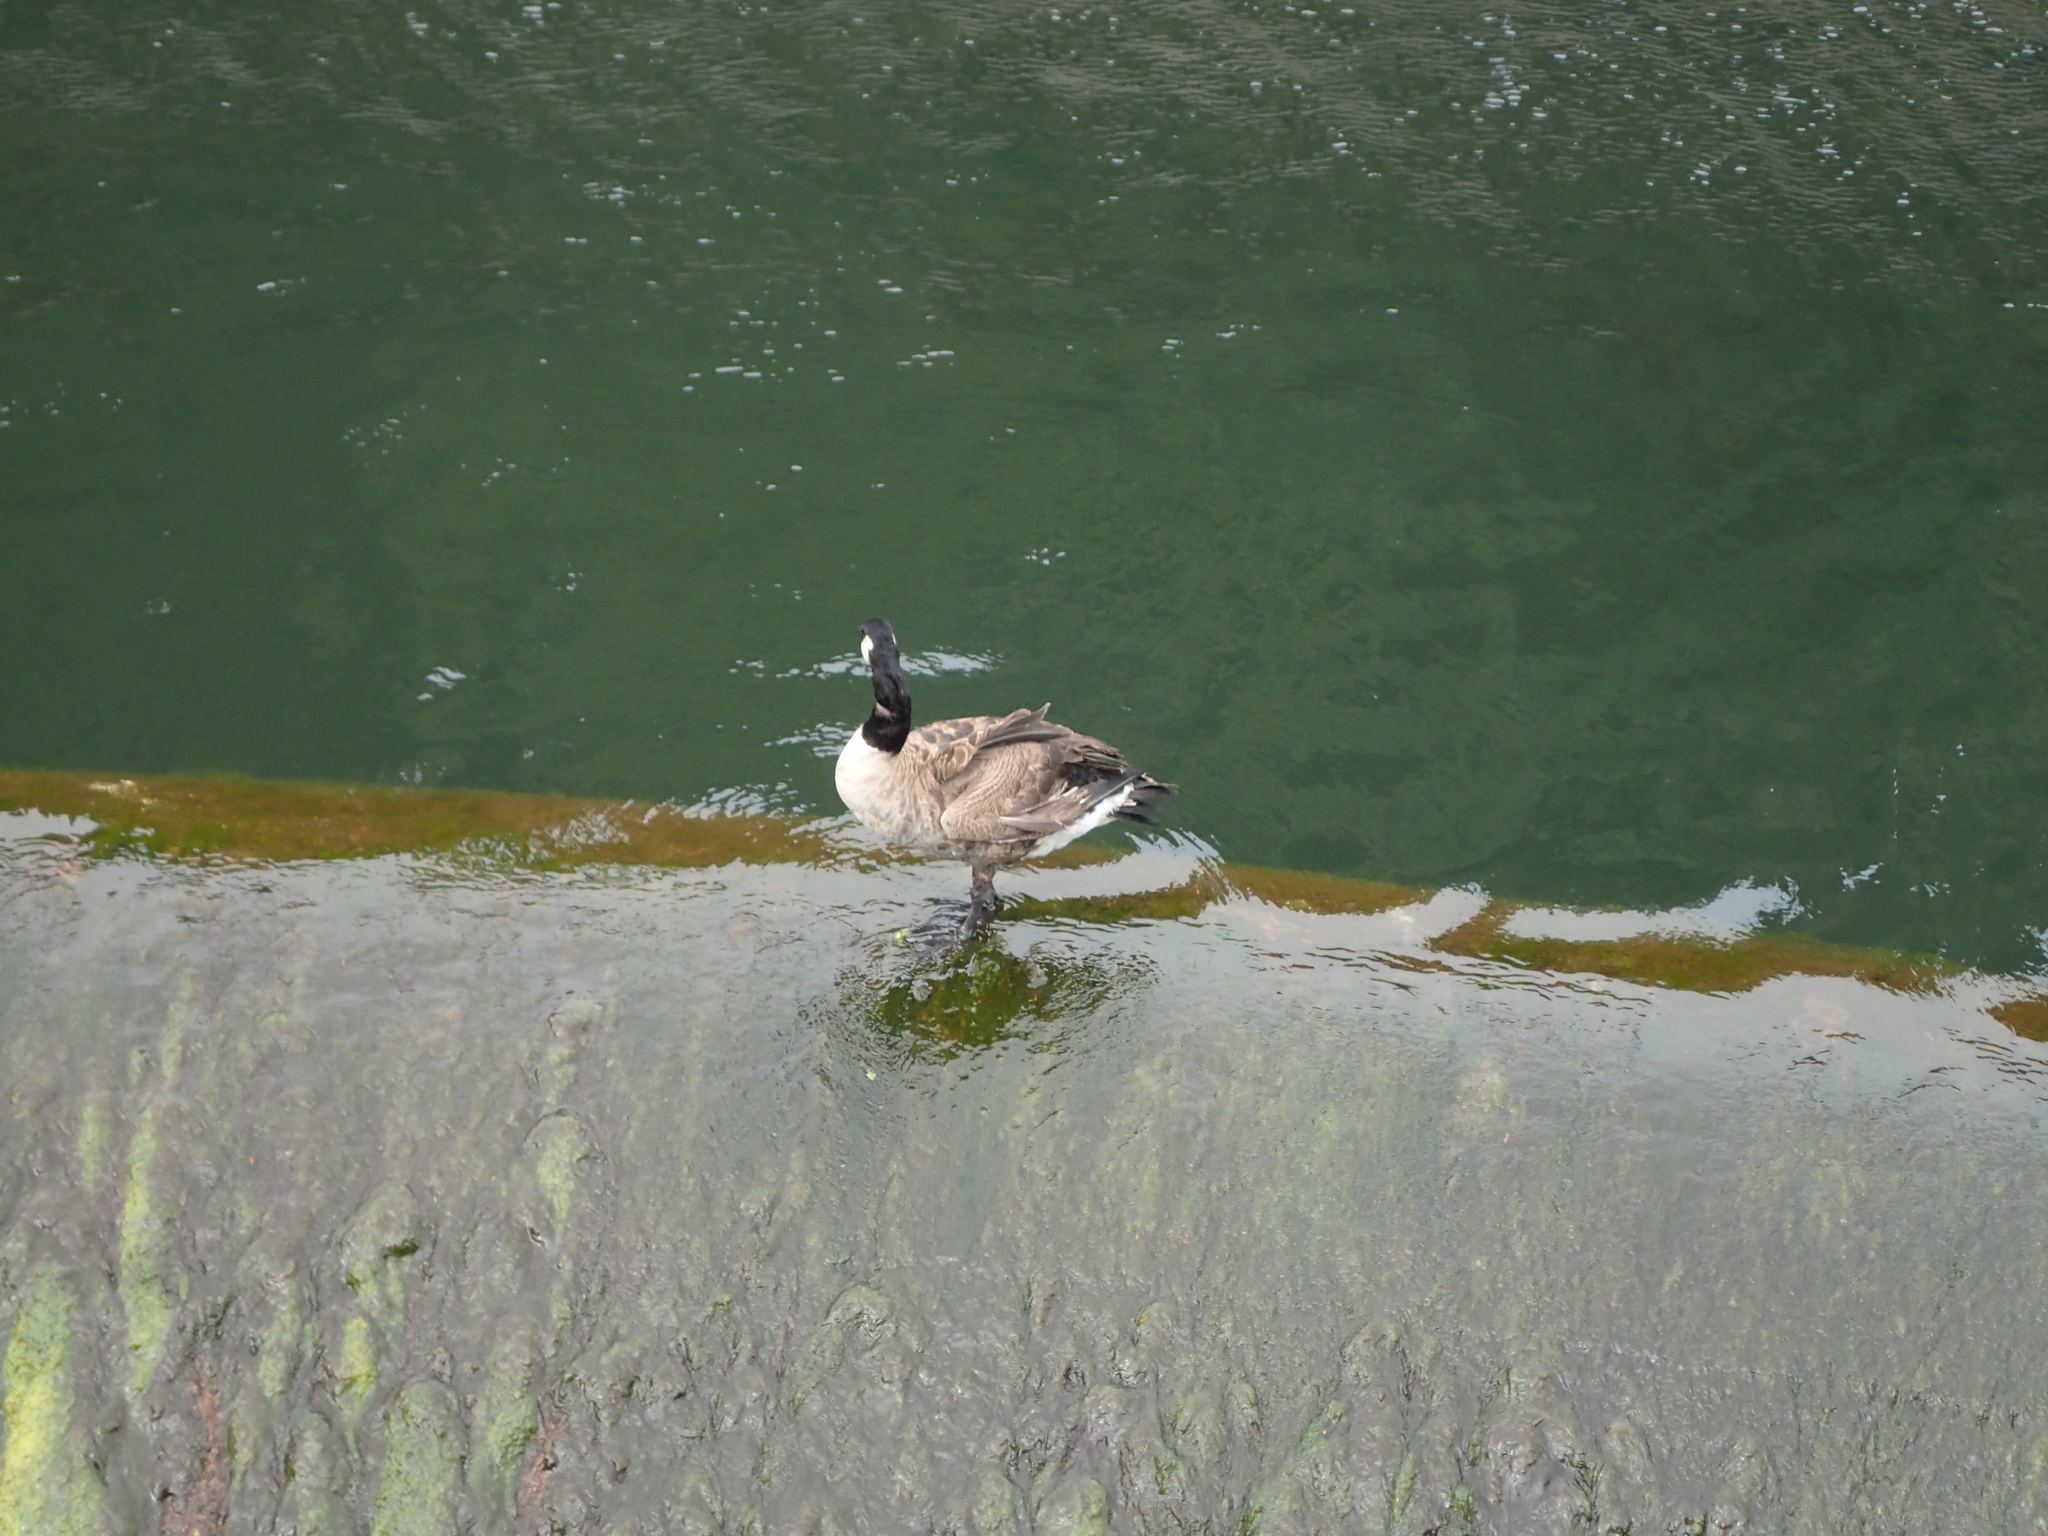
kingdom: Animalia
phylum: Chordata
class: Aves
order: Anseriformes
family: Anatidae
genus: Branta
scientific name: Branta canadensis
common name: Canada goose
